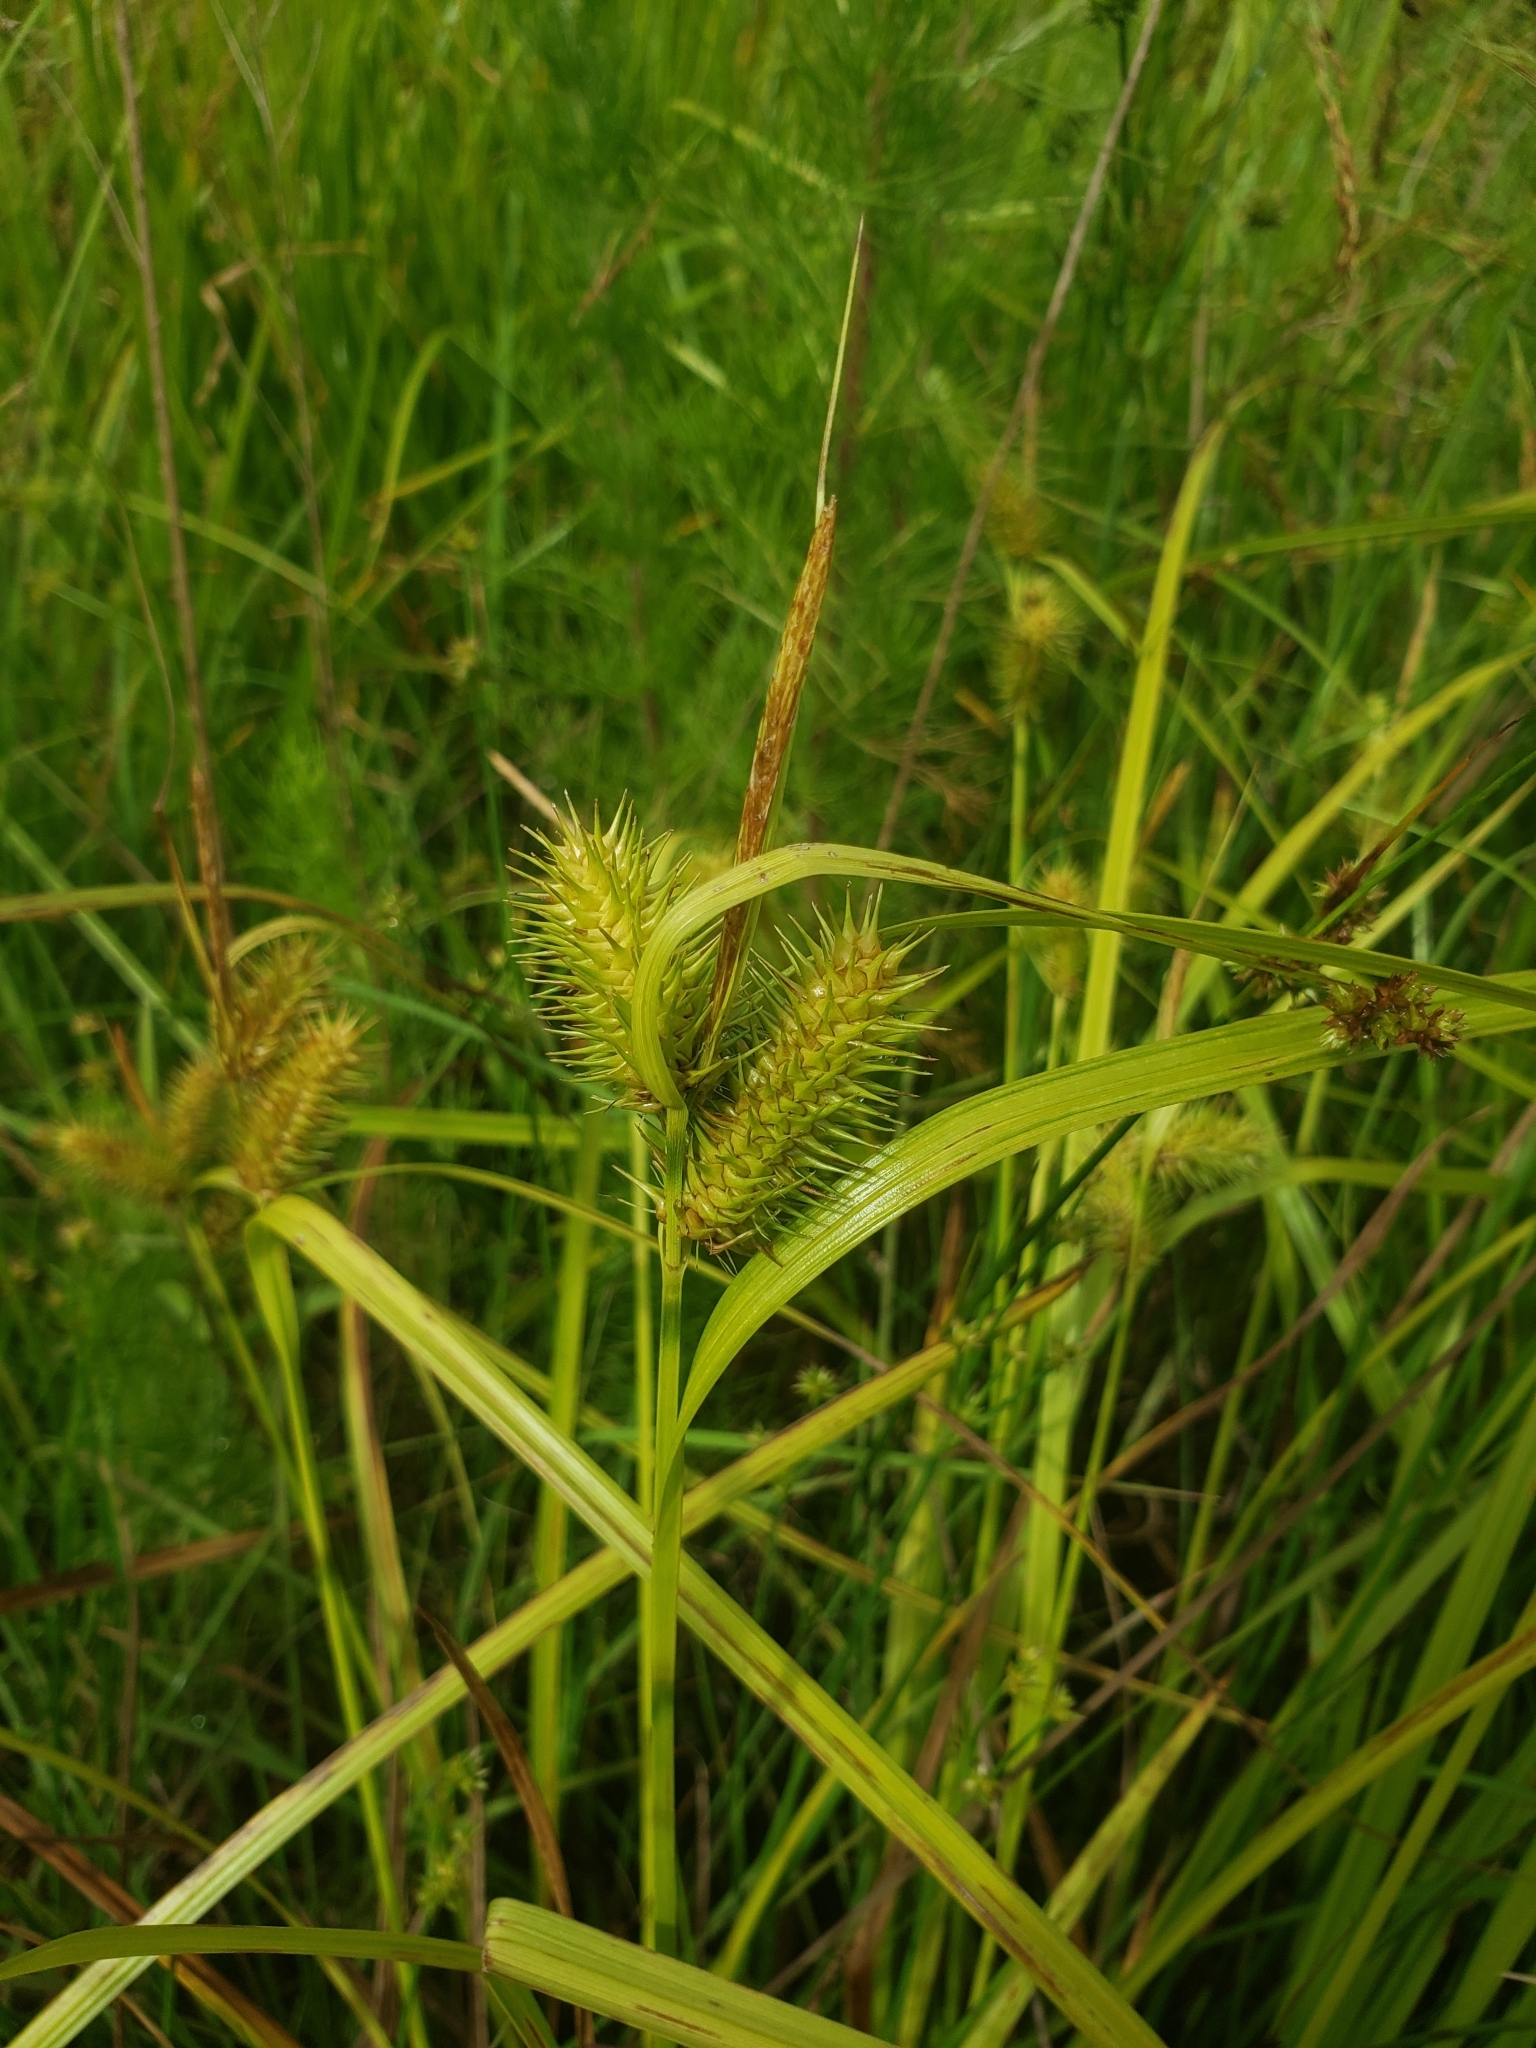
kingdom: Plantae
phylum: Tracheophyta
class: Liliopsida
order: Poales
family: Cyperaceae
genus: Carex
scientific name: Carex lurida
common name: Sallow sedge
